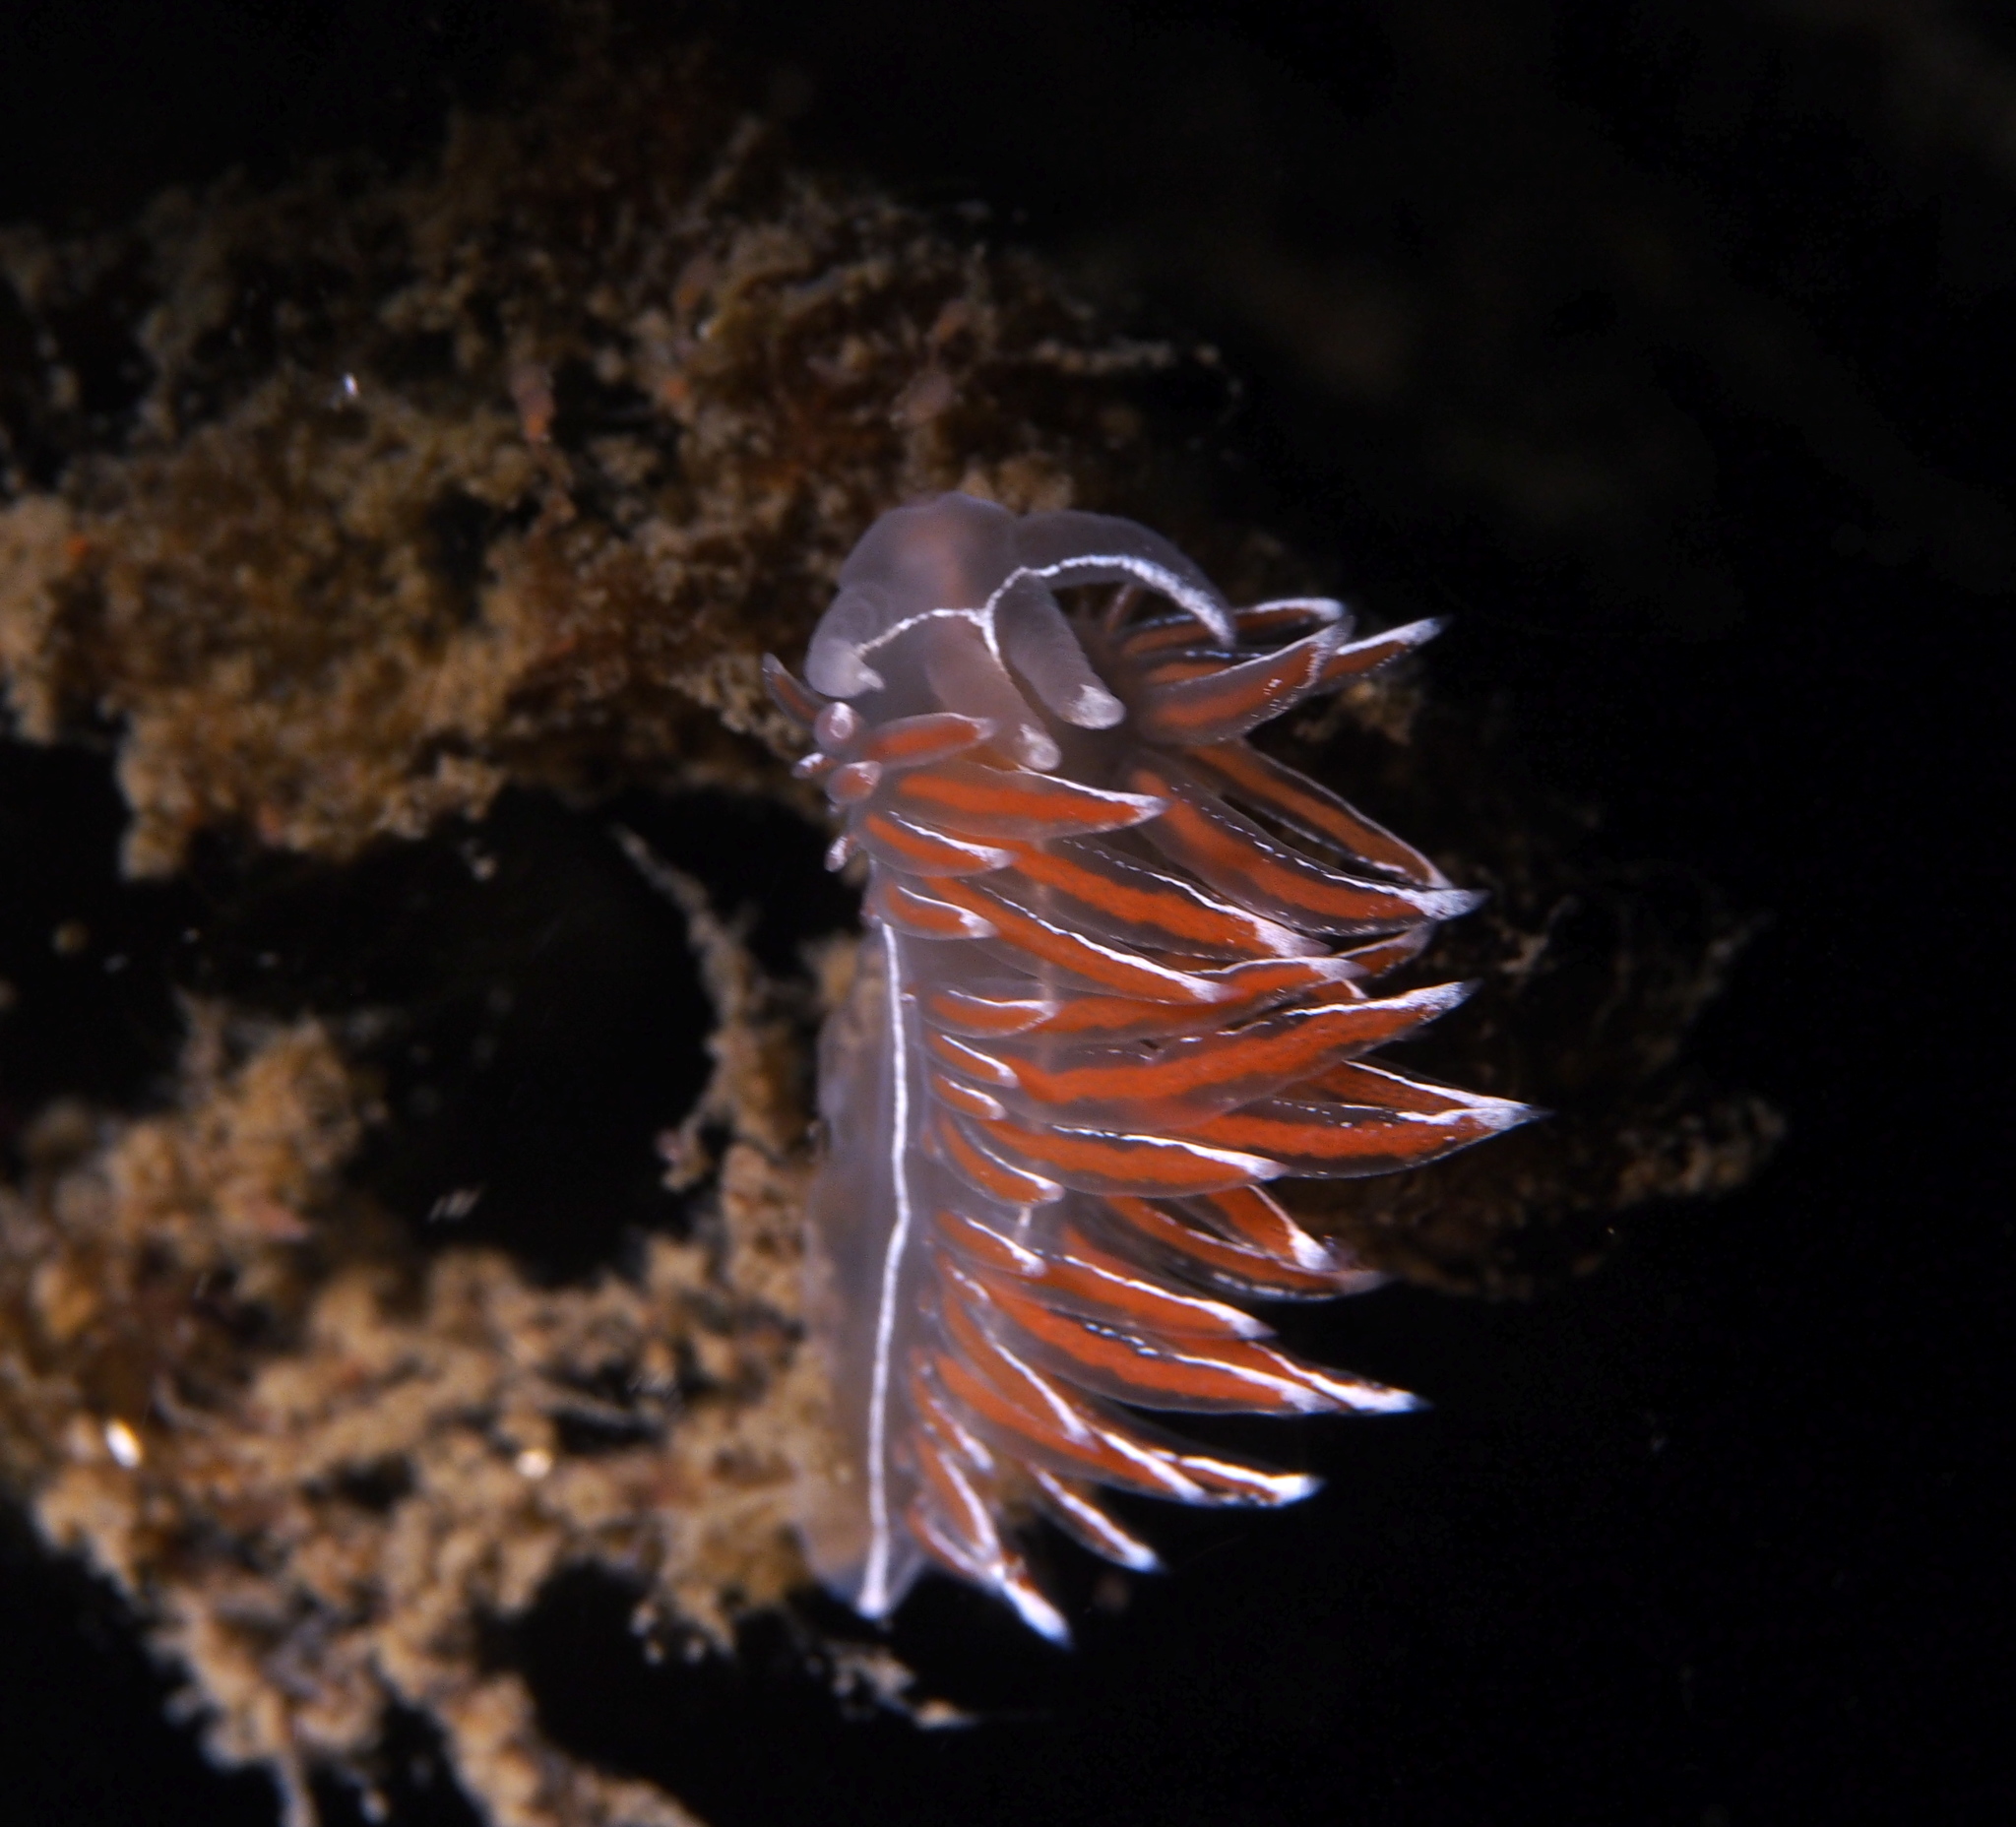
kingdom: Animalia
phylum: Mollusca
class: Gastropoda
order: Nudibranchia
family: Coryphellidae
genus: Coryphella
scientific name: Coryphella lineata
